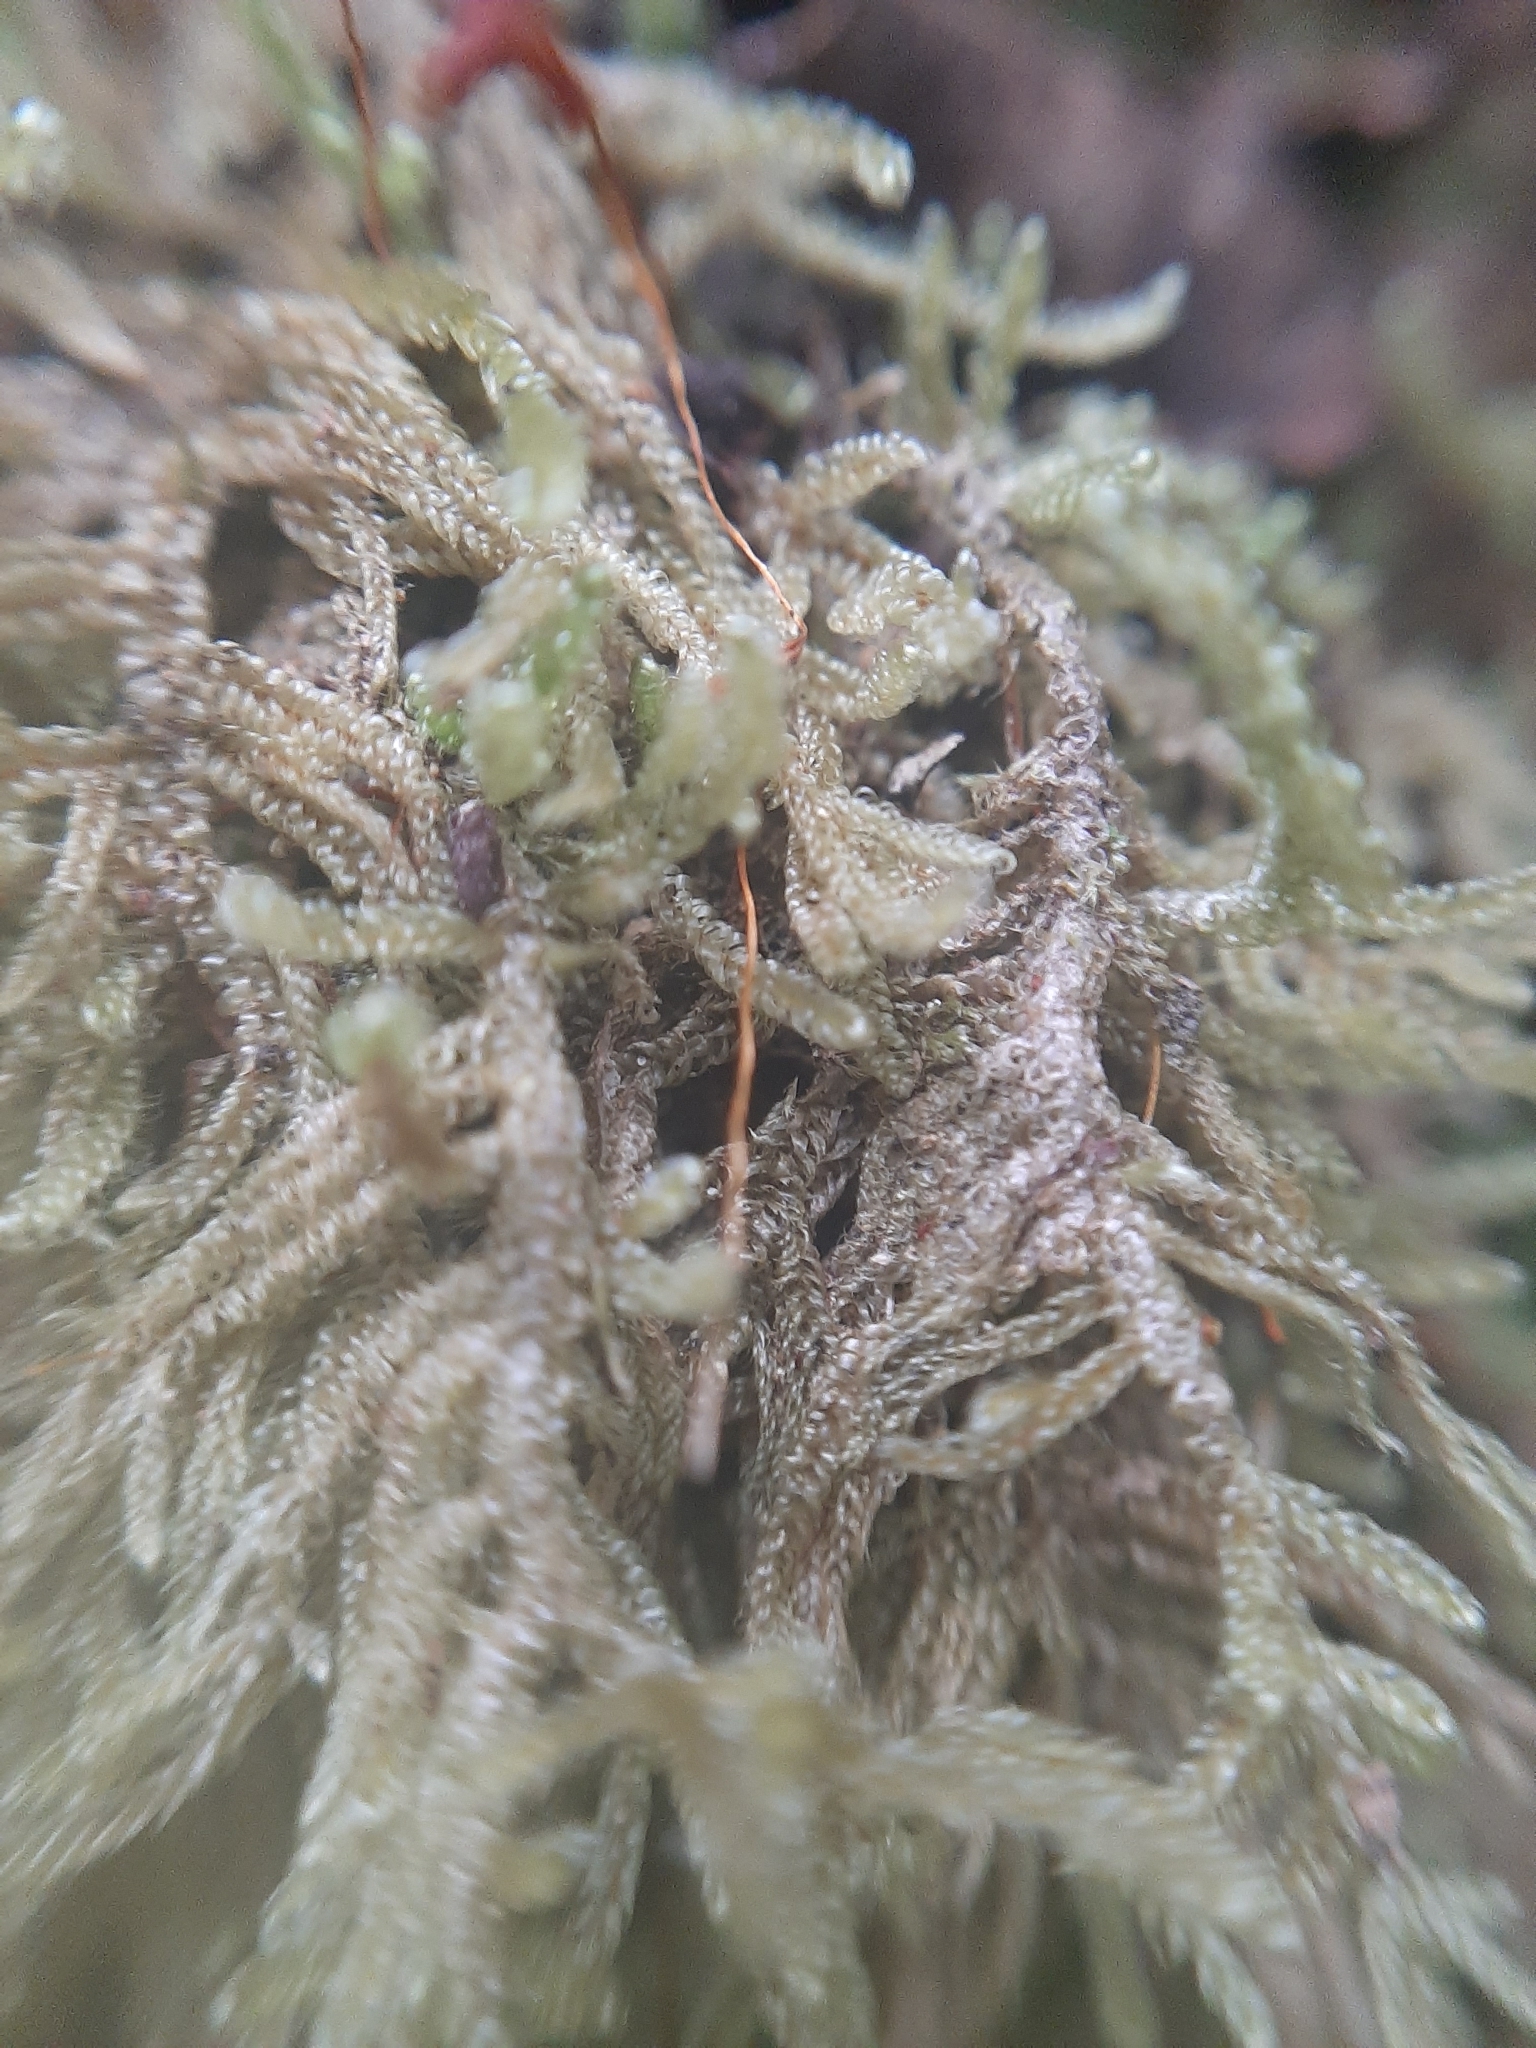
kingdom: Plantae
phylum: Bryophyta
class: Bryopsida
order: Hypnales
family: Pylaisiadelphaceae
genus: Notohypnum
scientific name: Notohypnum chrysogaster
